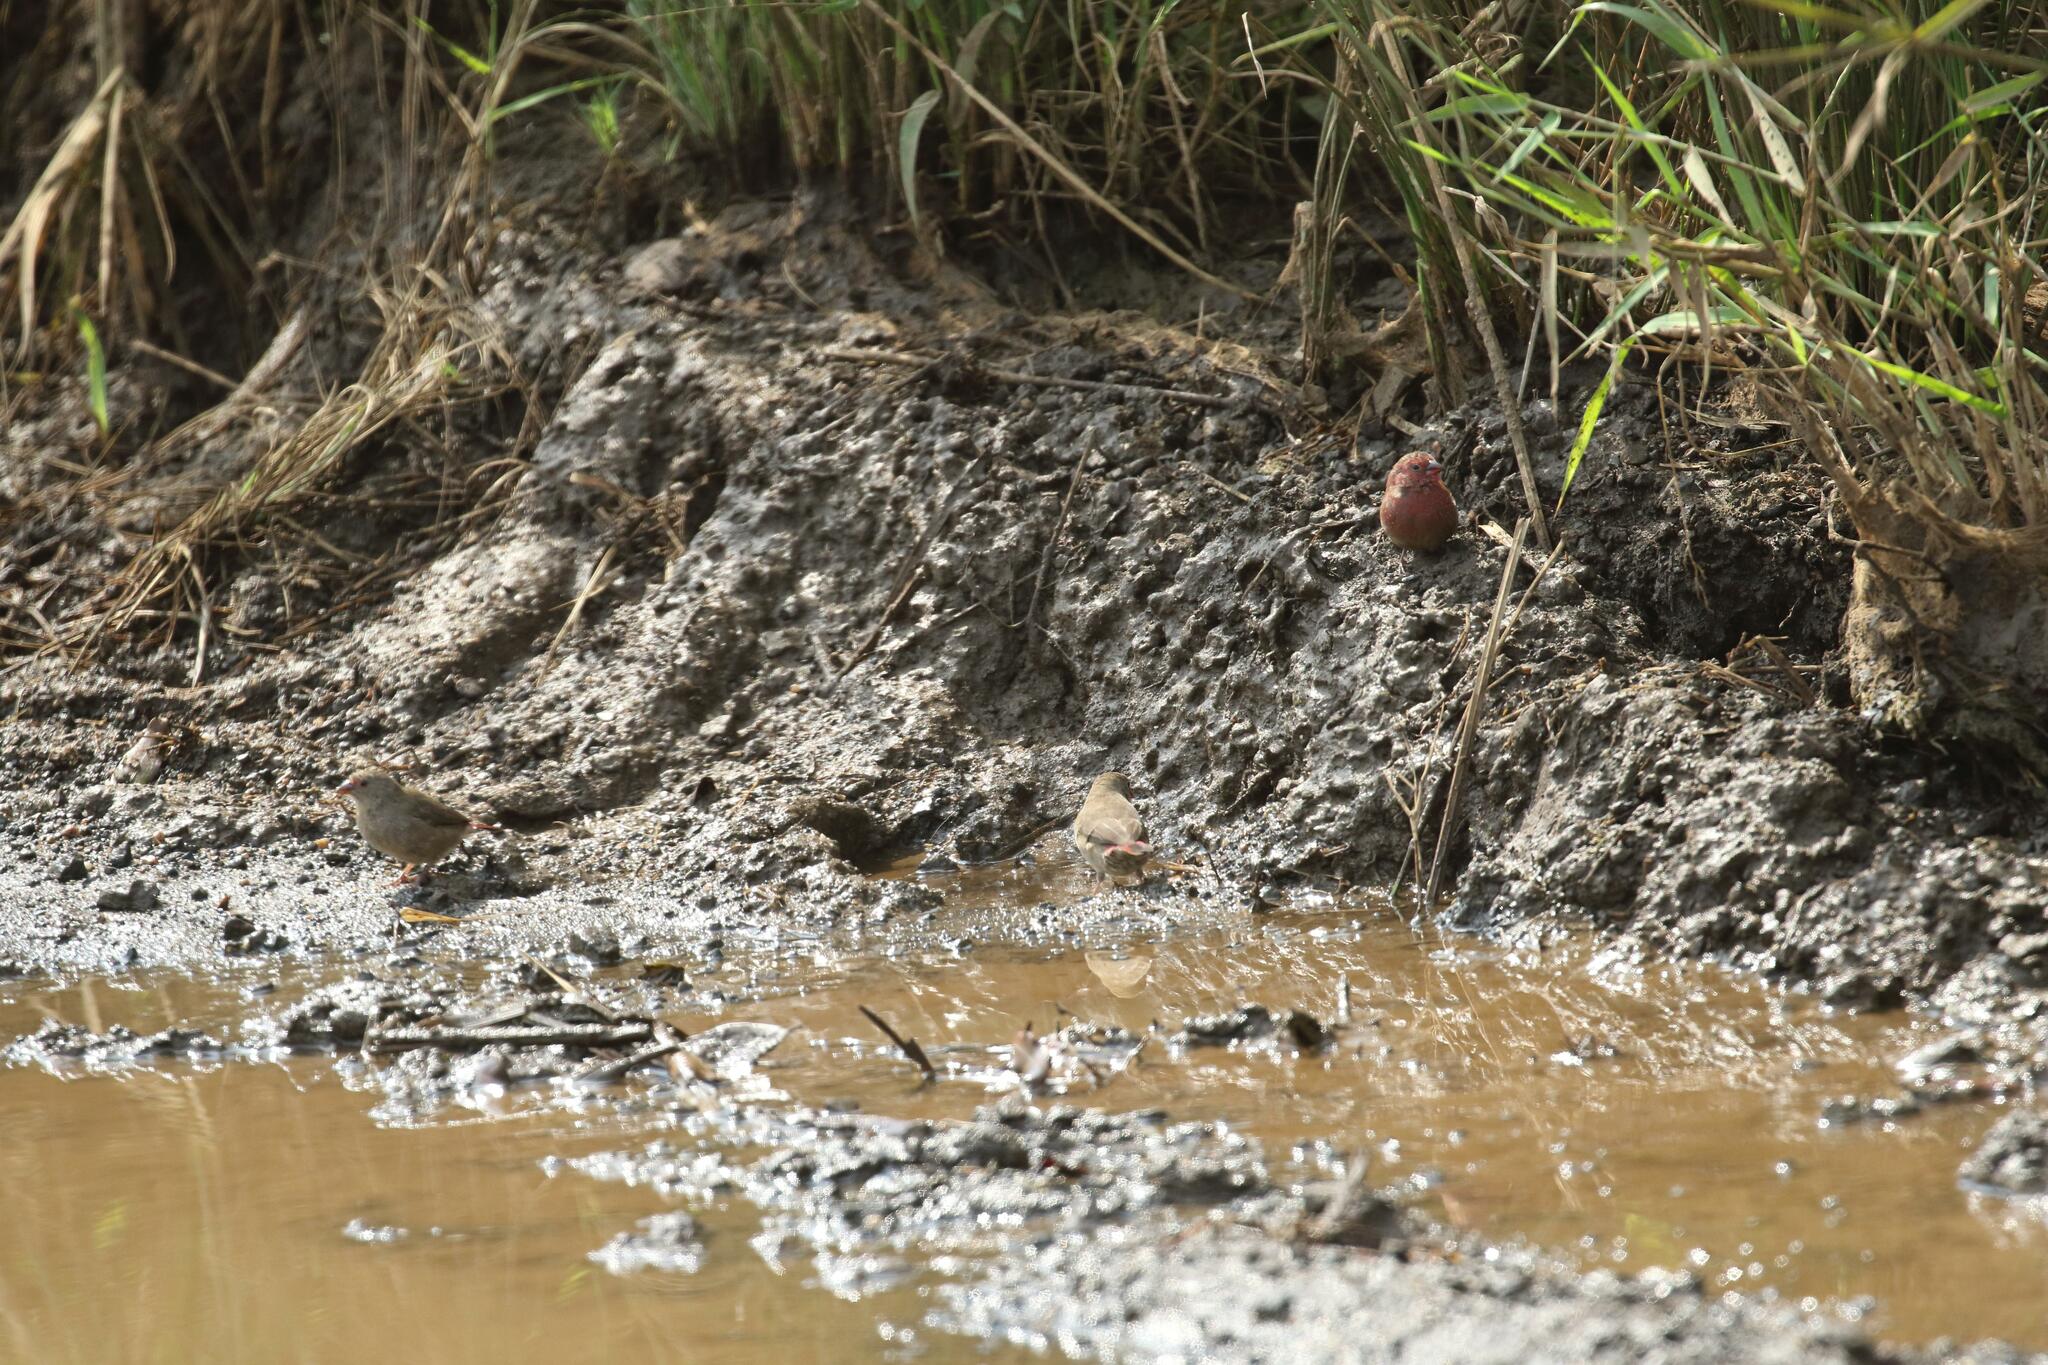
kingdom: Animalia
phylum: Chordata
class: Aves
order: Passeriformes
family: Estrildidae
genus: Lagonosticta
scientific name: Lagonosticta senegala
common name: Red-billed firefinch
